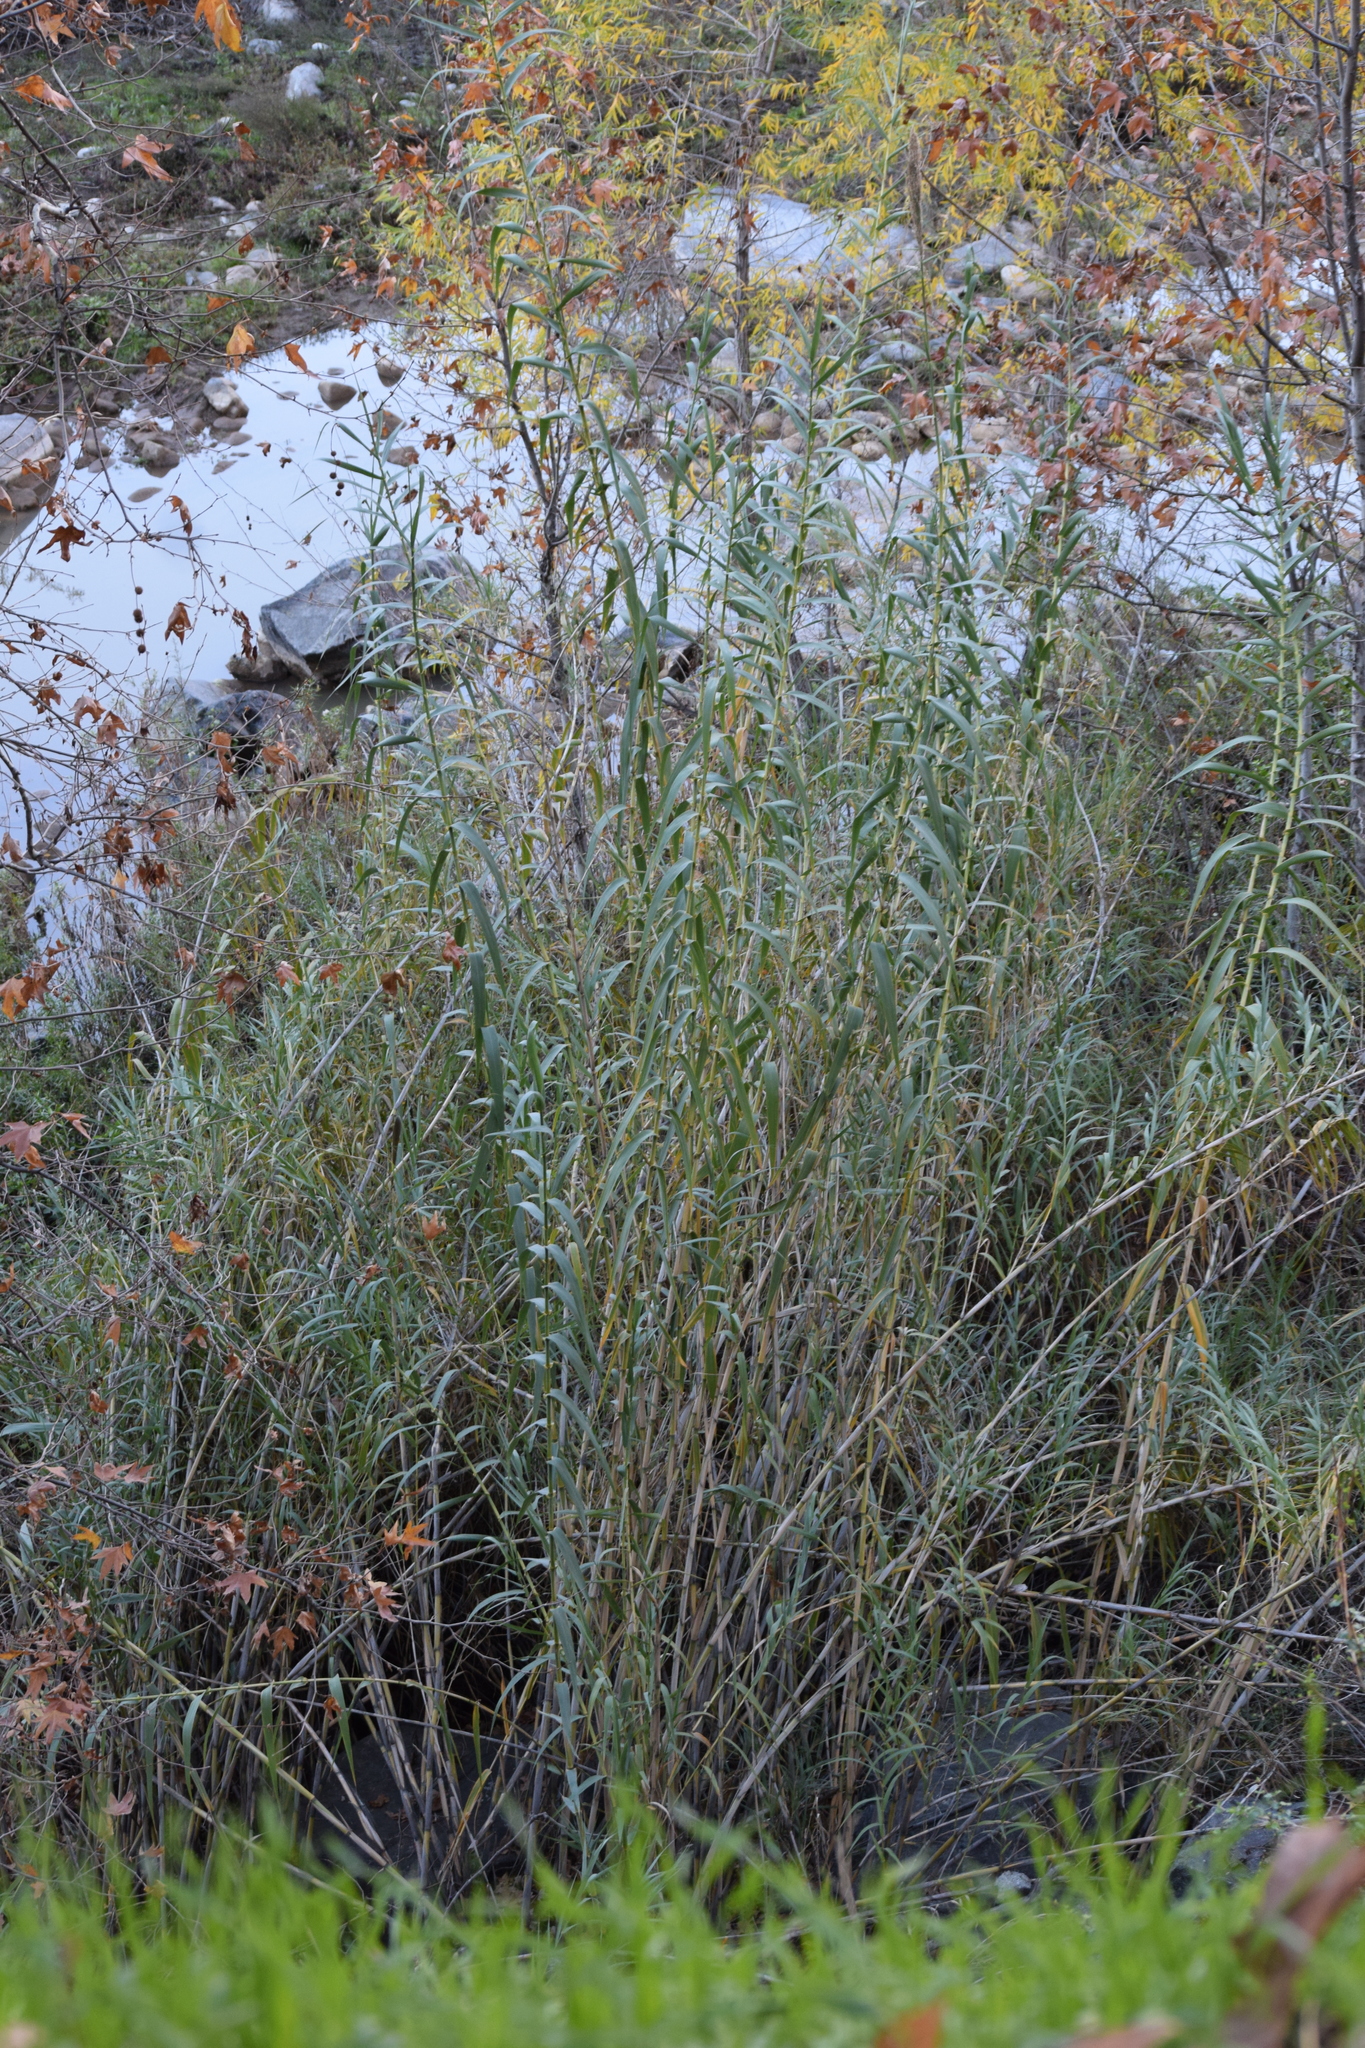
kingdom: Plantae
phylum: Tracheophyta
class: Liliopsida
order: Poales
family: Poaceae
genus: Arundo
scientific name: Arundo donax
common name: Giant reed
